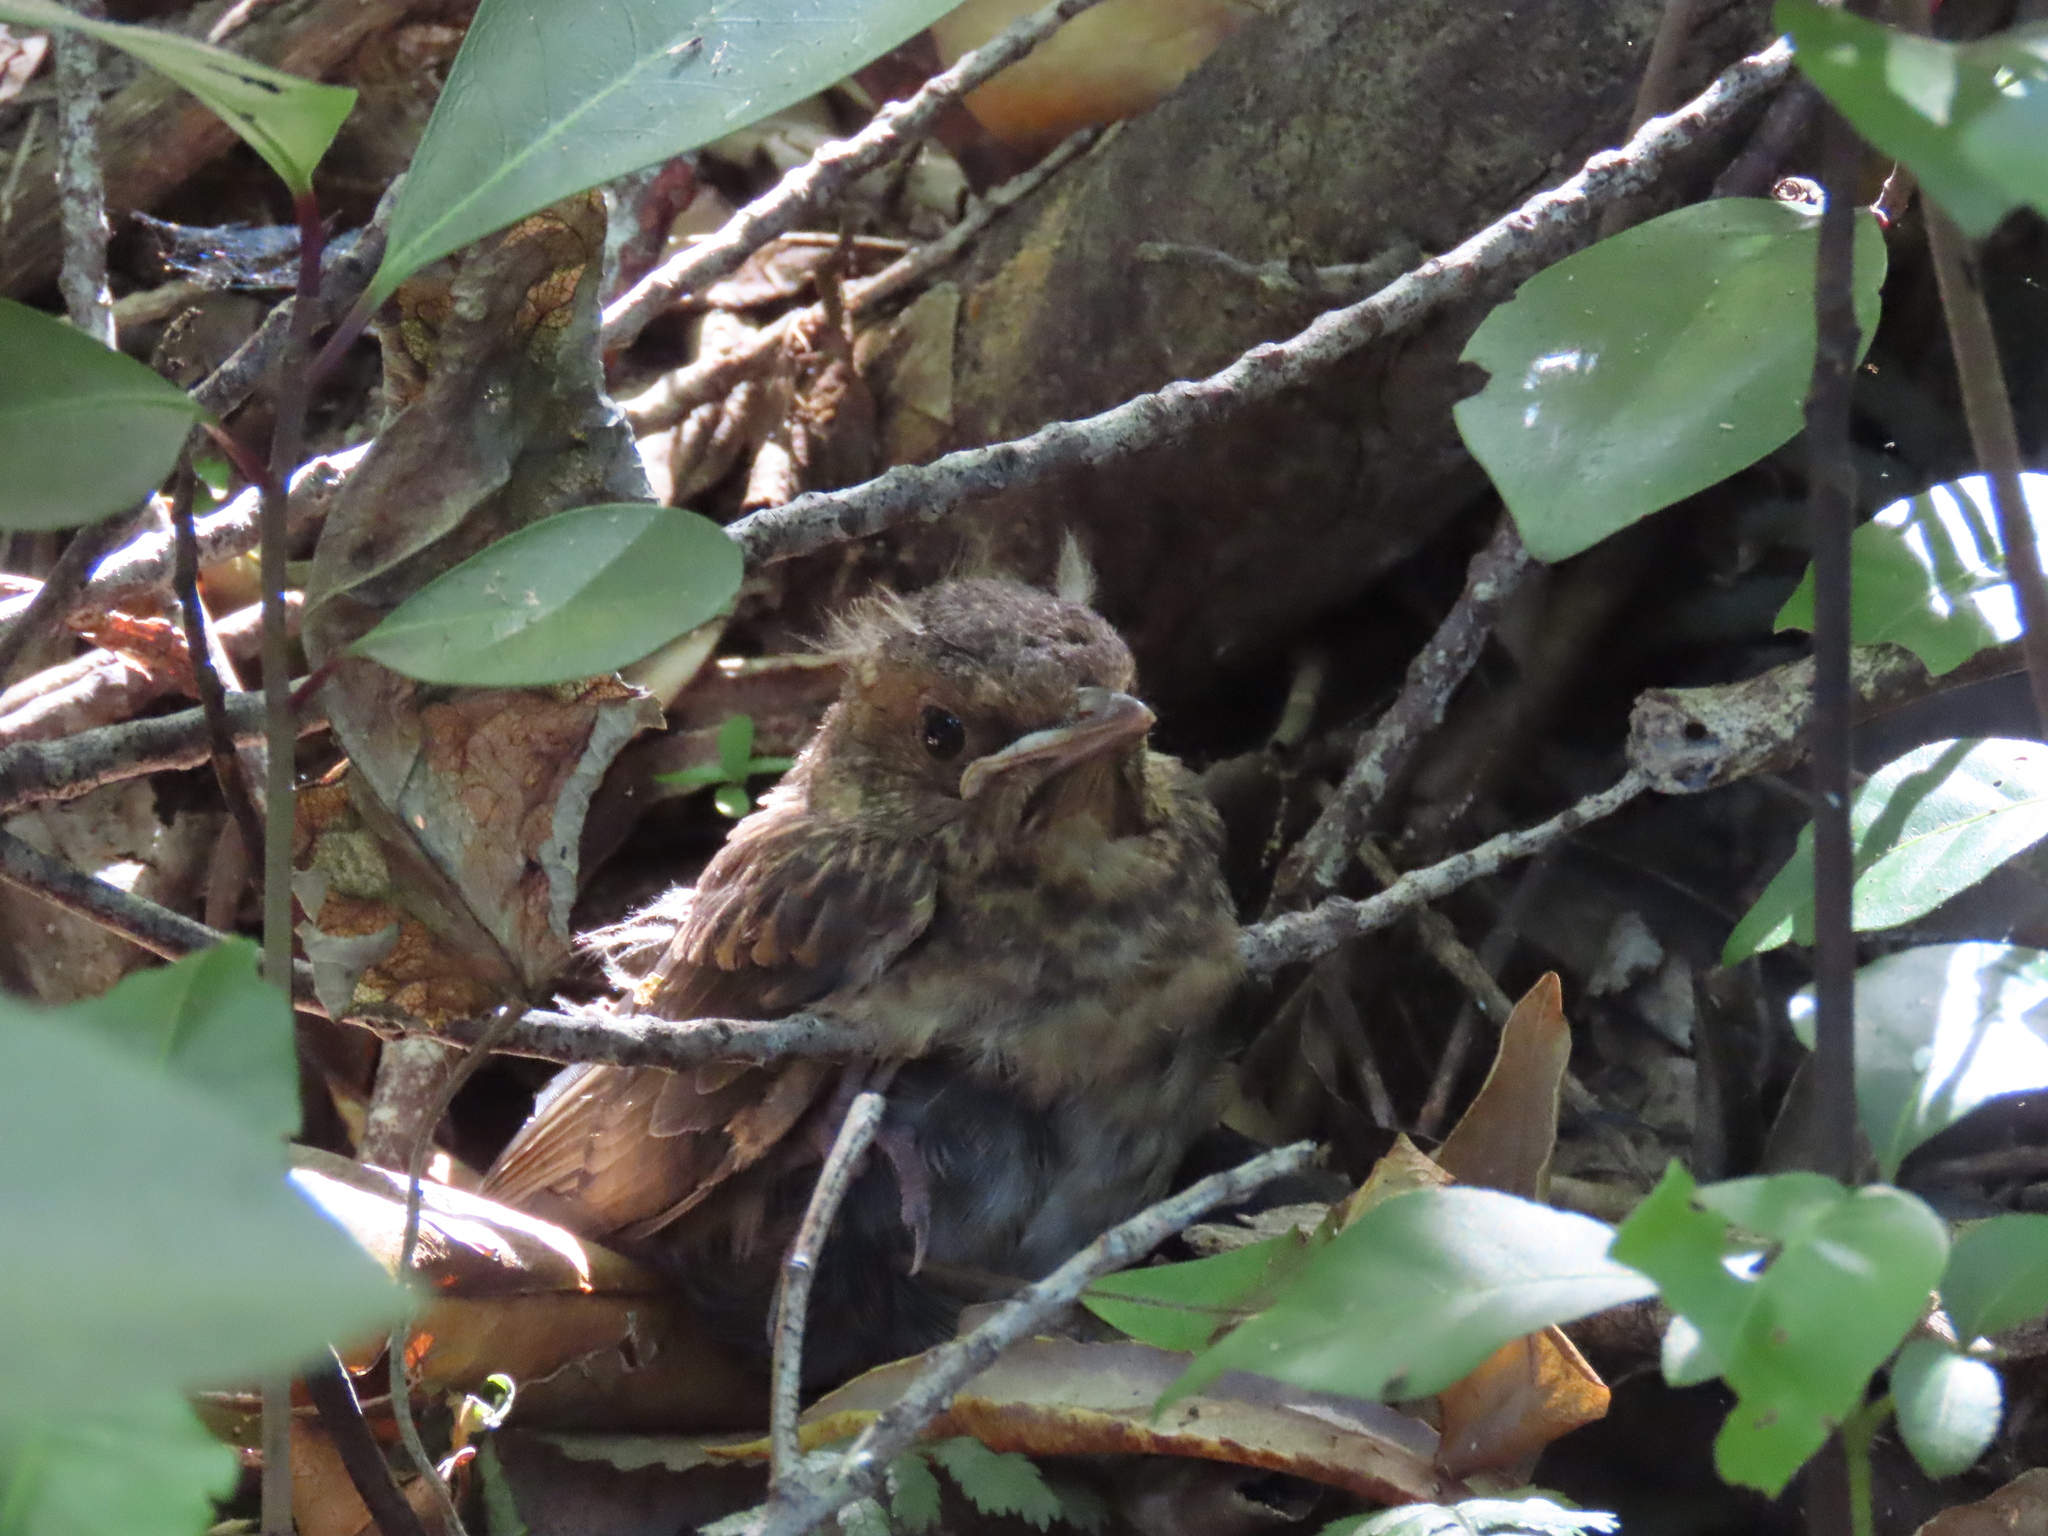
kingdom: Animalia
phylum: Chordata
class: Aves
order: Passeriformes
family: Turdidae
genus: Turdus
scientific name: Turdus merula
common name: Common blackbird
